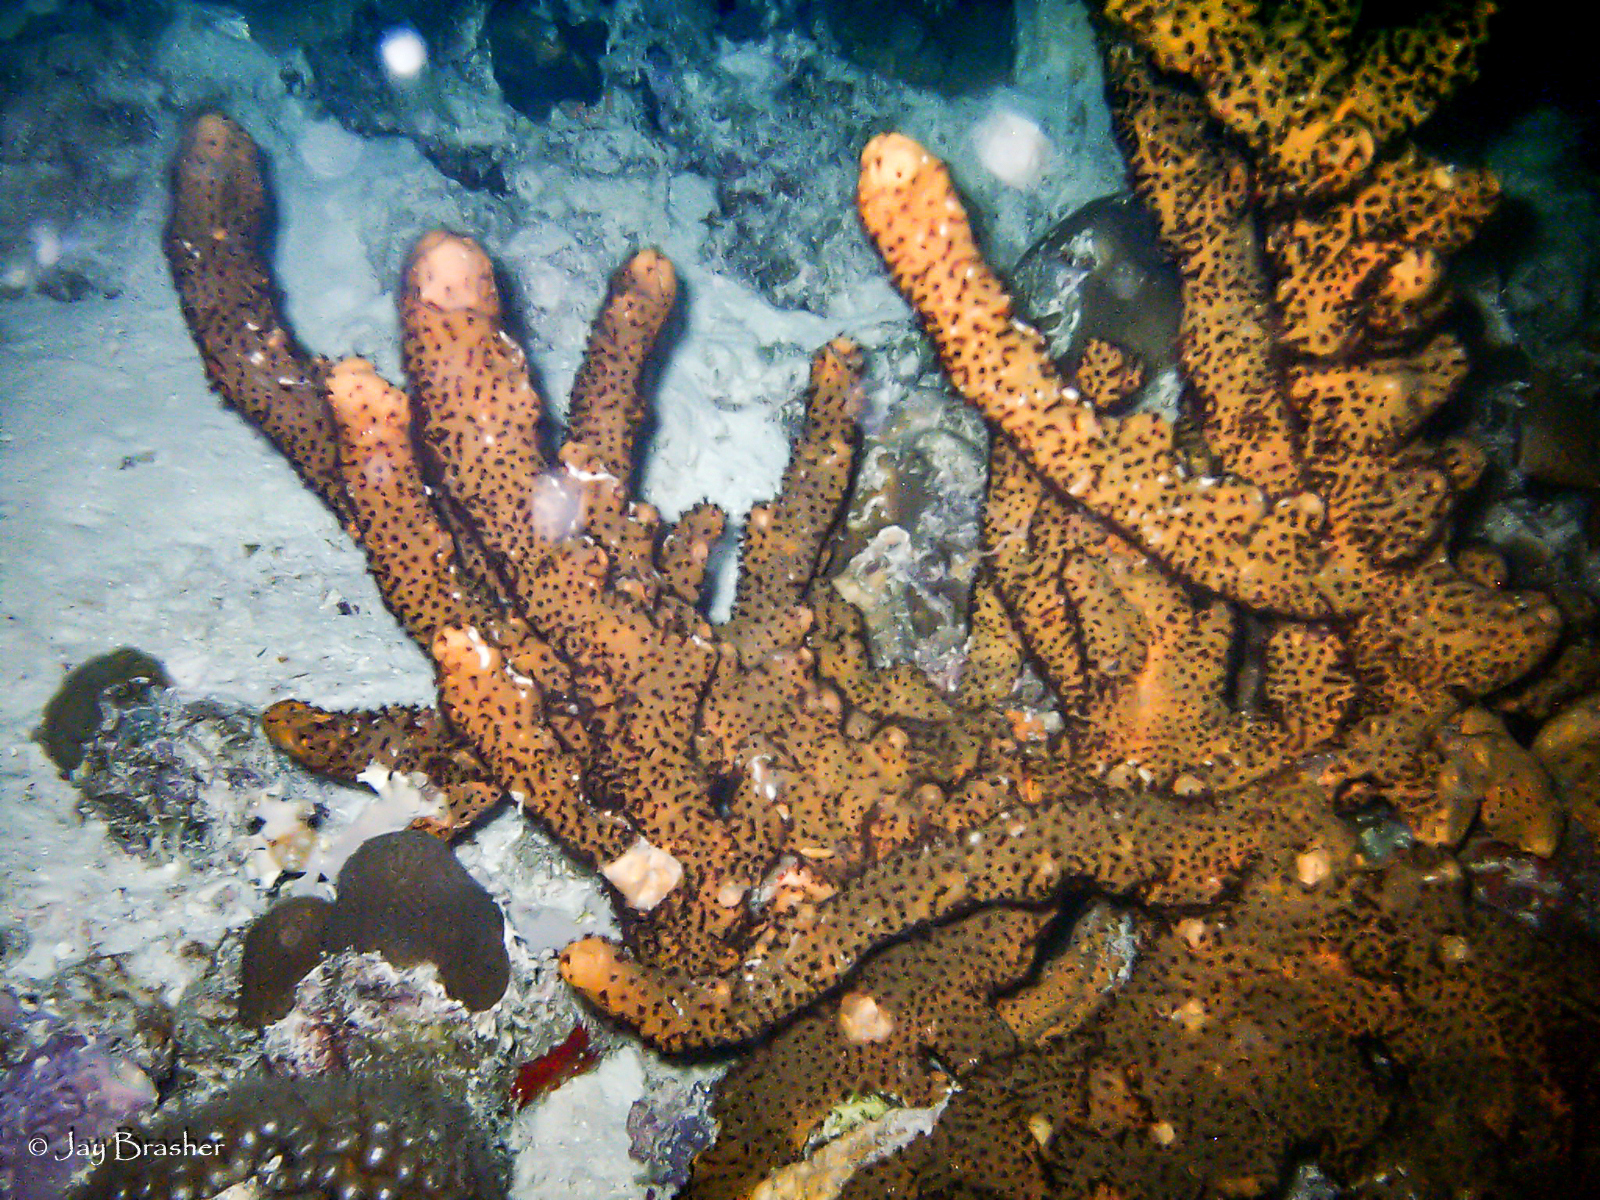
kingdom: Animalia
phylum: Cnidaria
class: Anthozoa
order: Zoantharia
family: Parazoanthidae
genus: Bergia
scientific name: Bergia puertoricense
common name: Maroon sponge zoanthid
